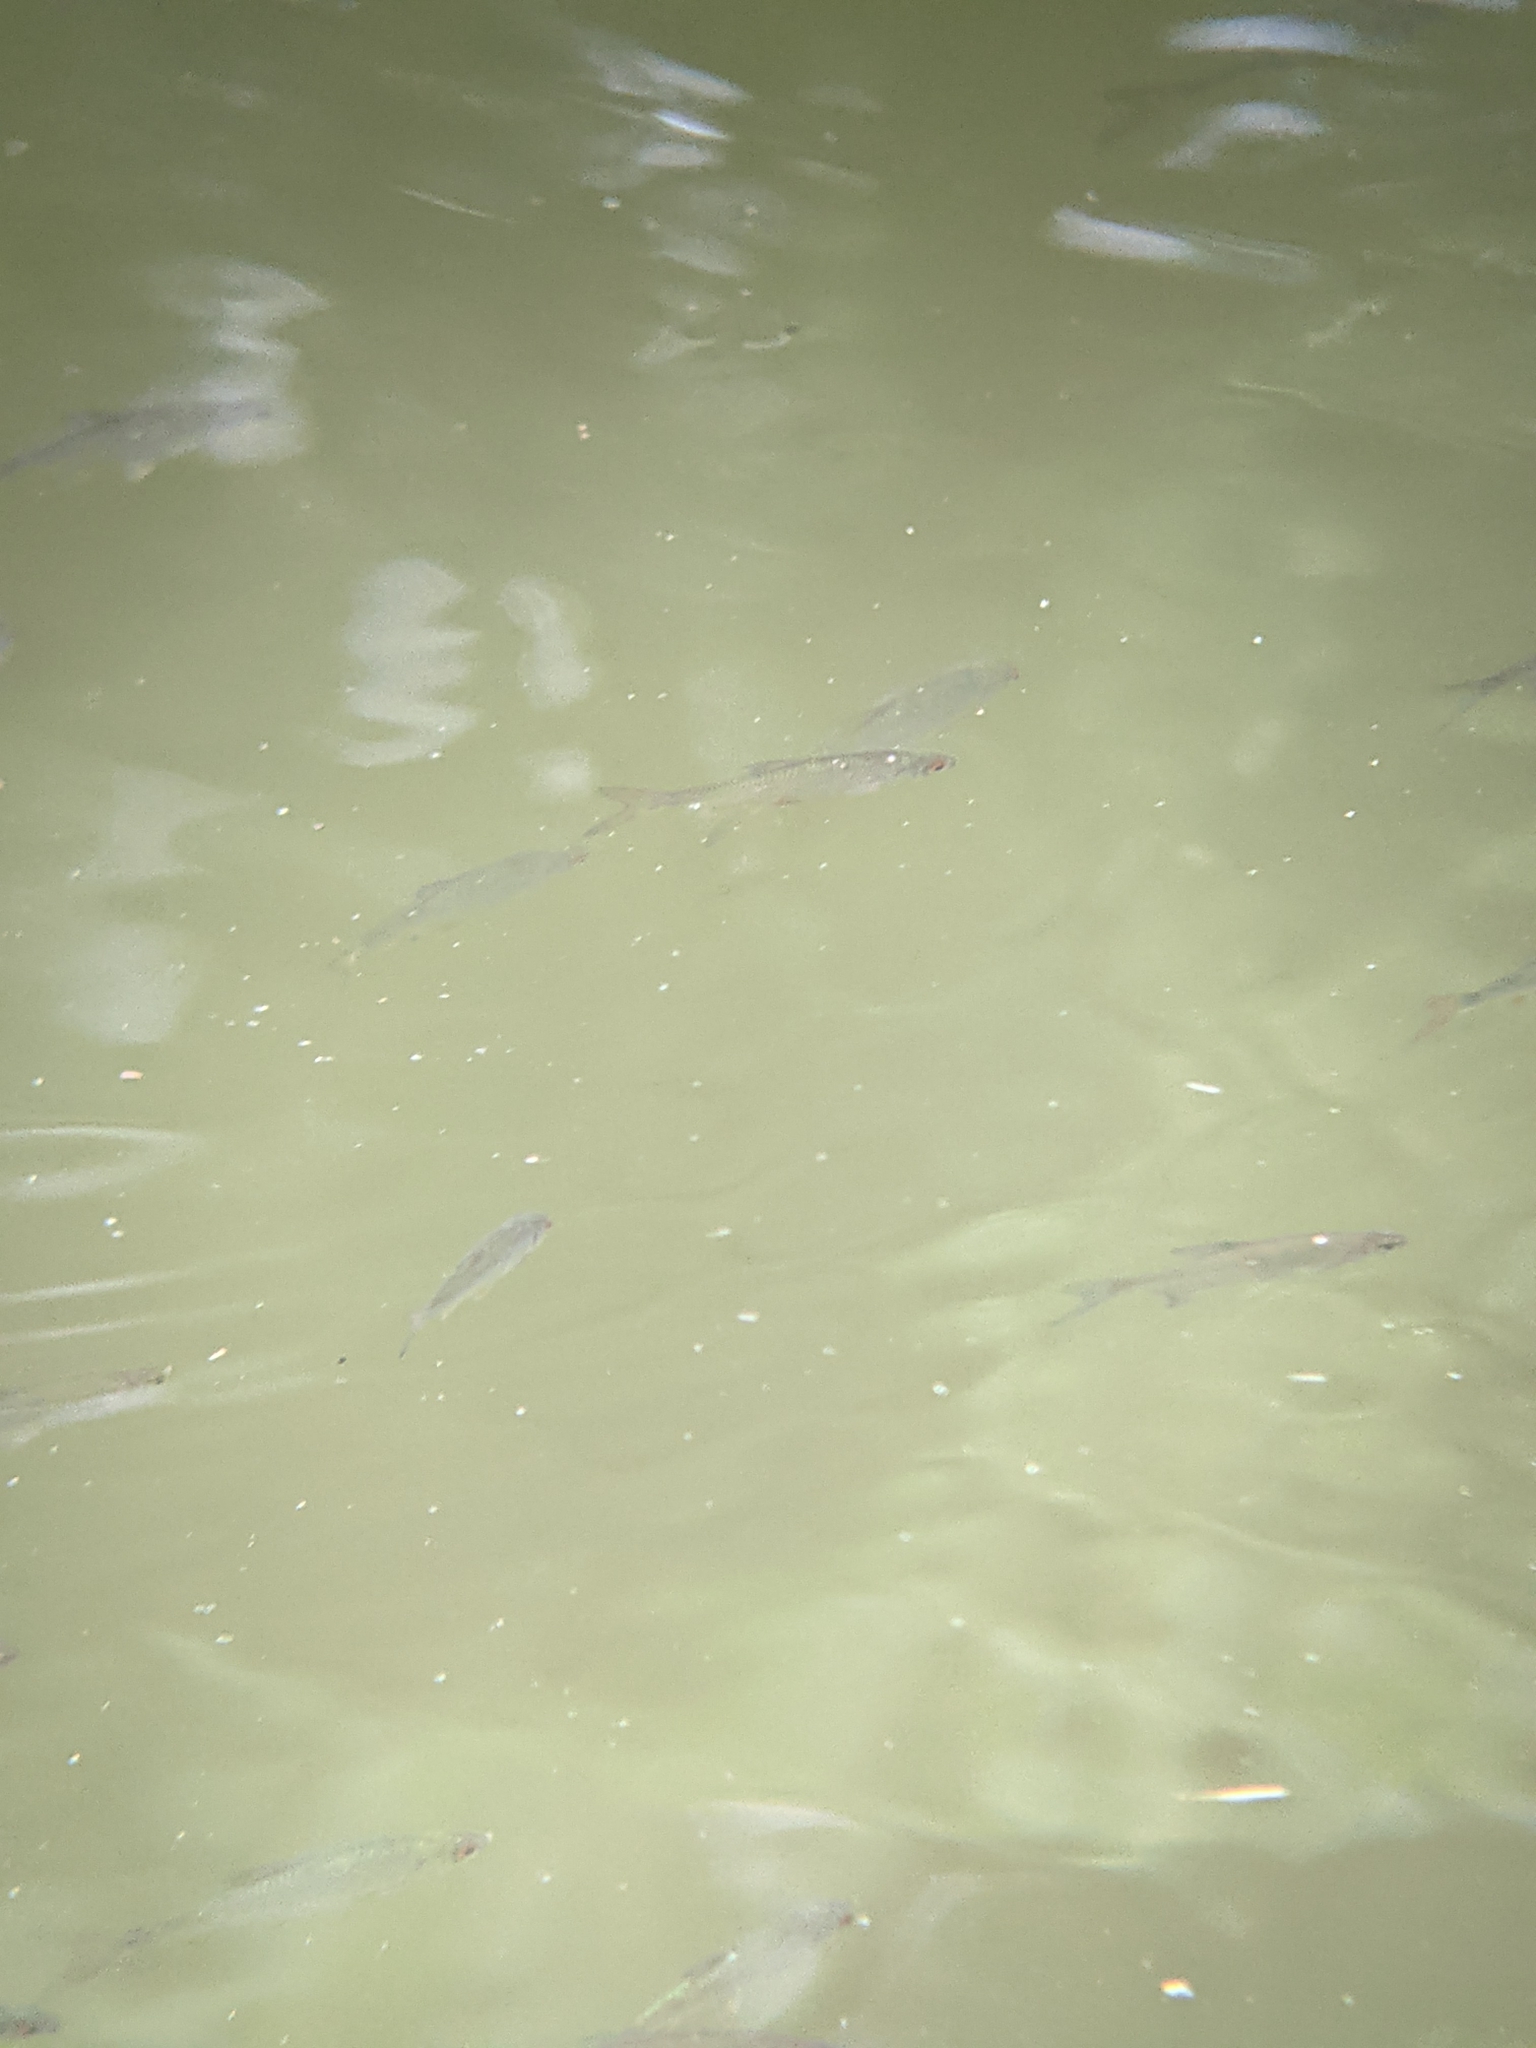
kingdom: Animalia
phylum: Chordata
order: Cypriniformes
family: Cyprinidae
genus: Rutilus
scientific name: Rutilus rutilus
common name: Roach
